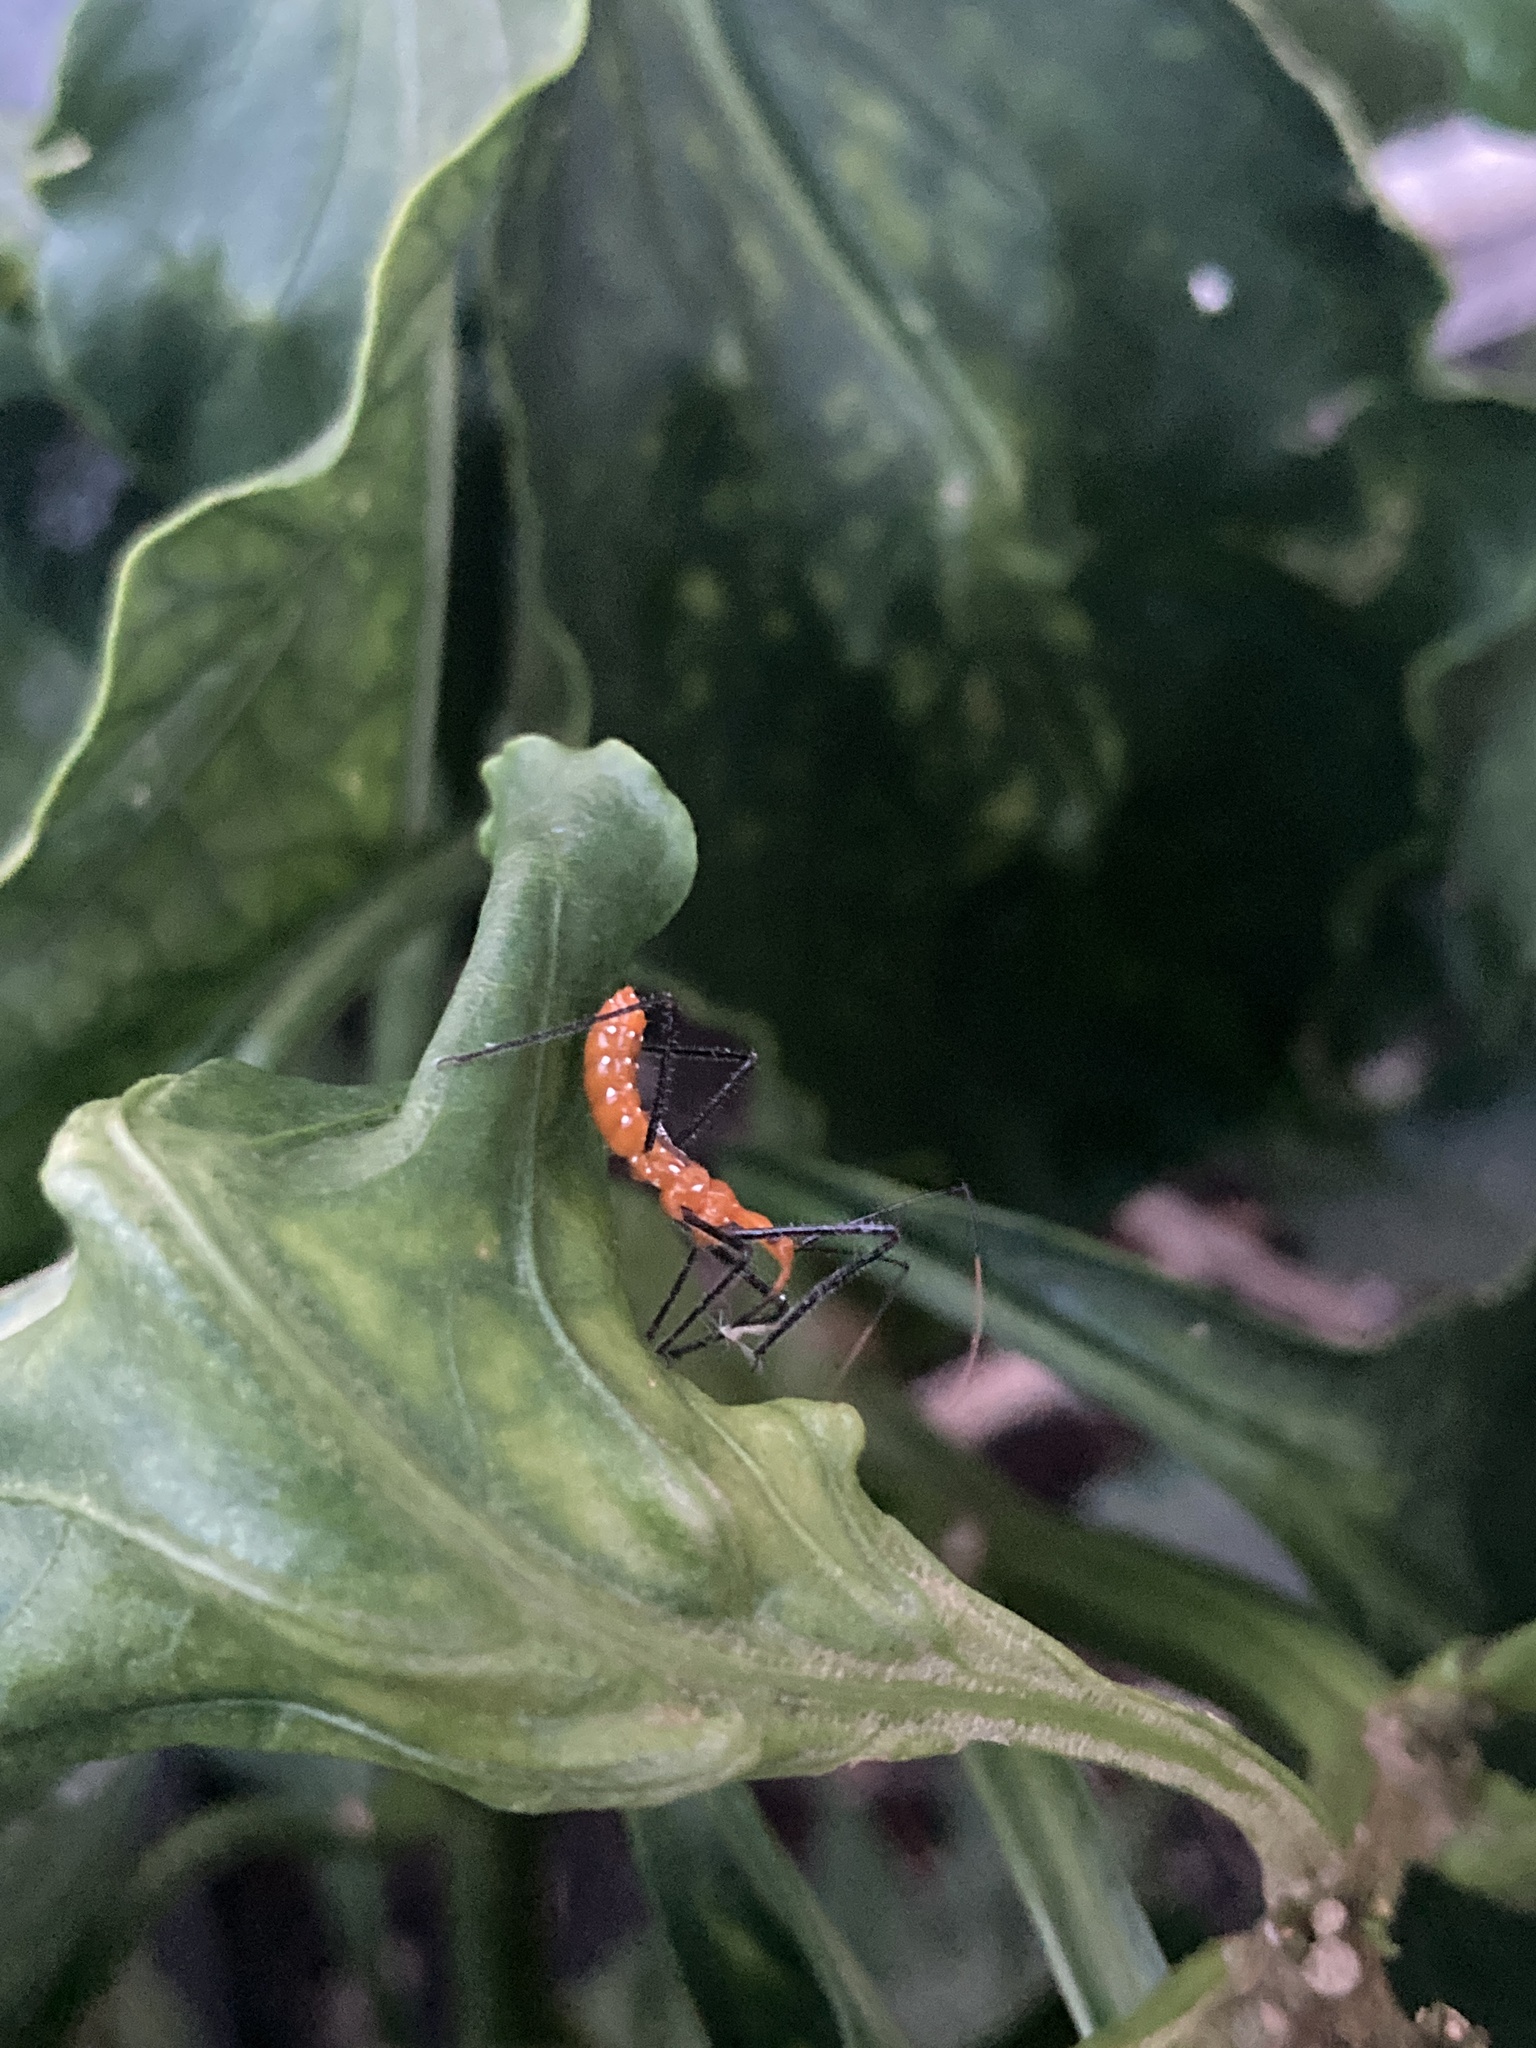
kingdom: Animalia
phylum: Arthropoda
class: Insecta
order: Hemiptera
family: Reduviidae
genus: Zelus
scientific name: Zelus longipes
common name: Milkweed assassin bug
